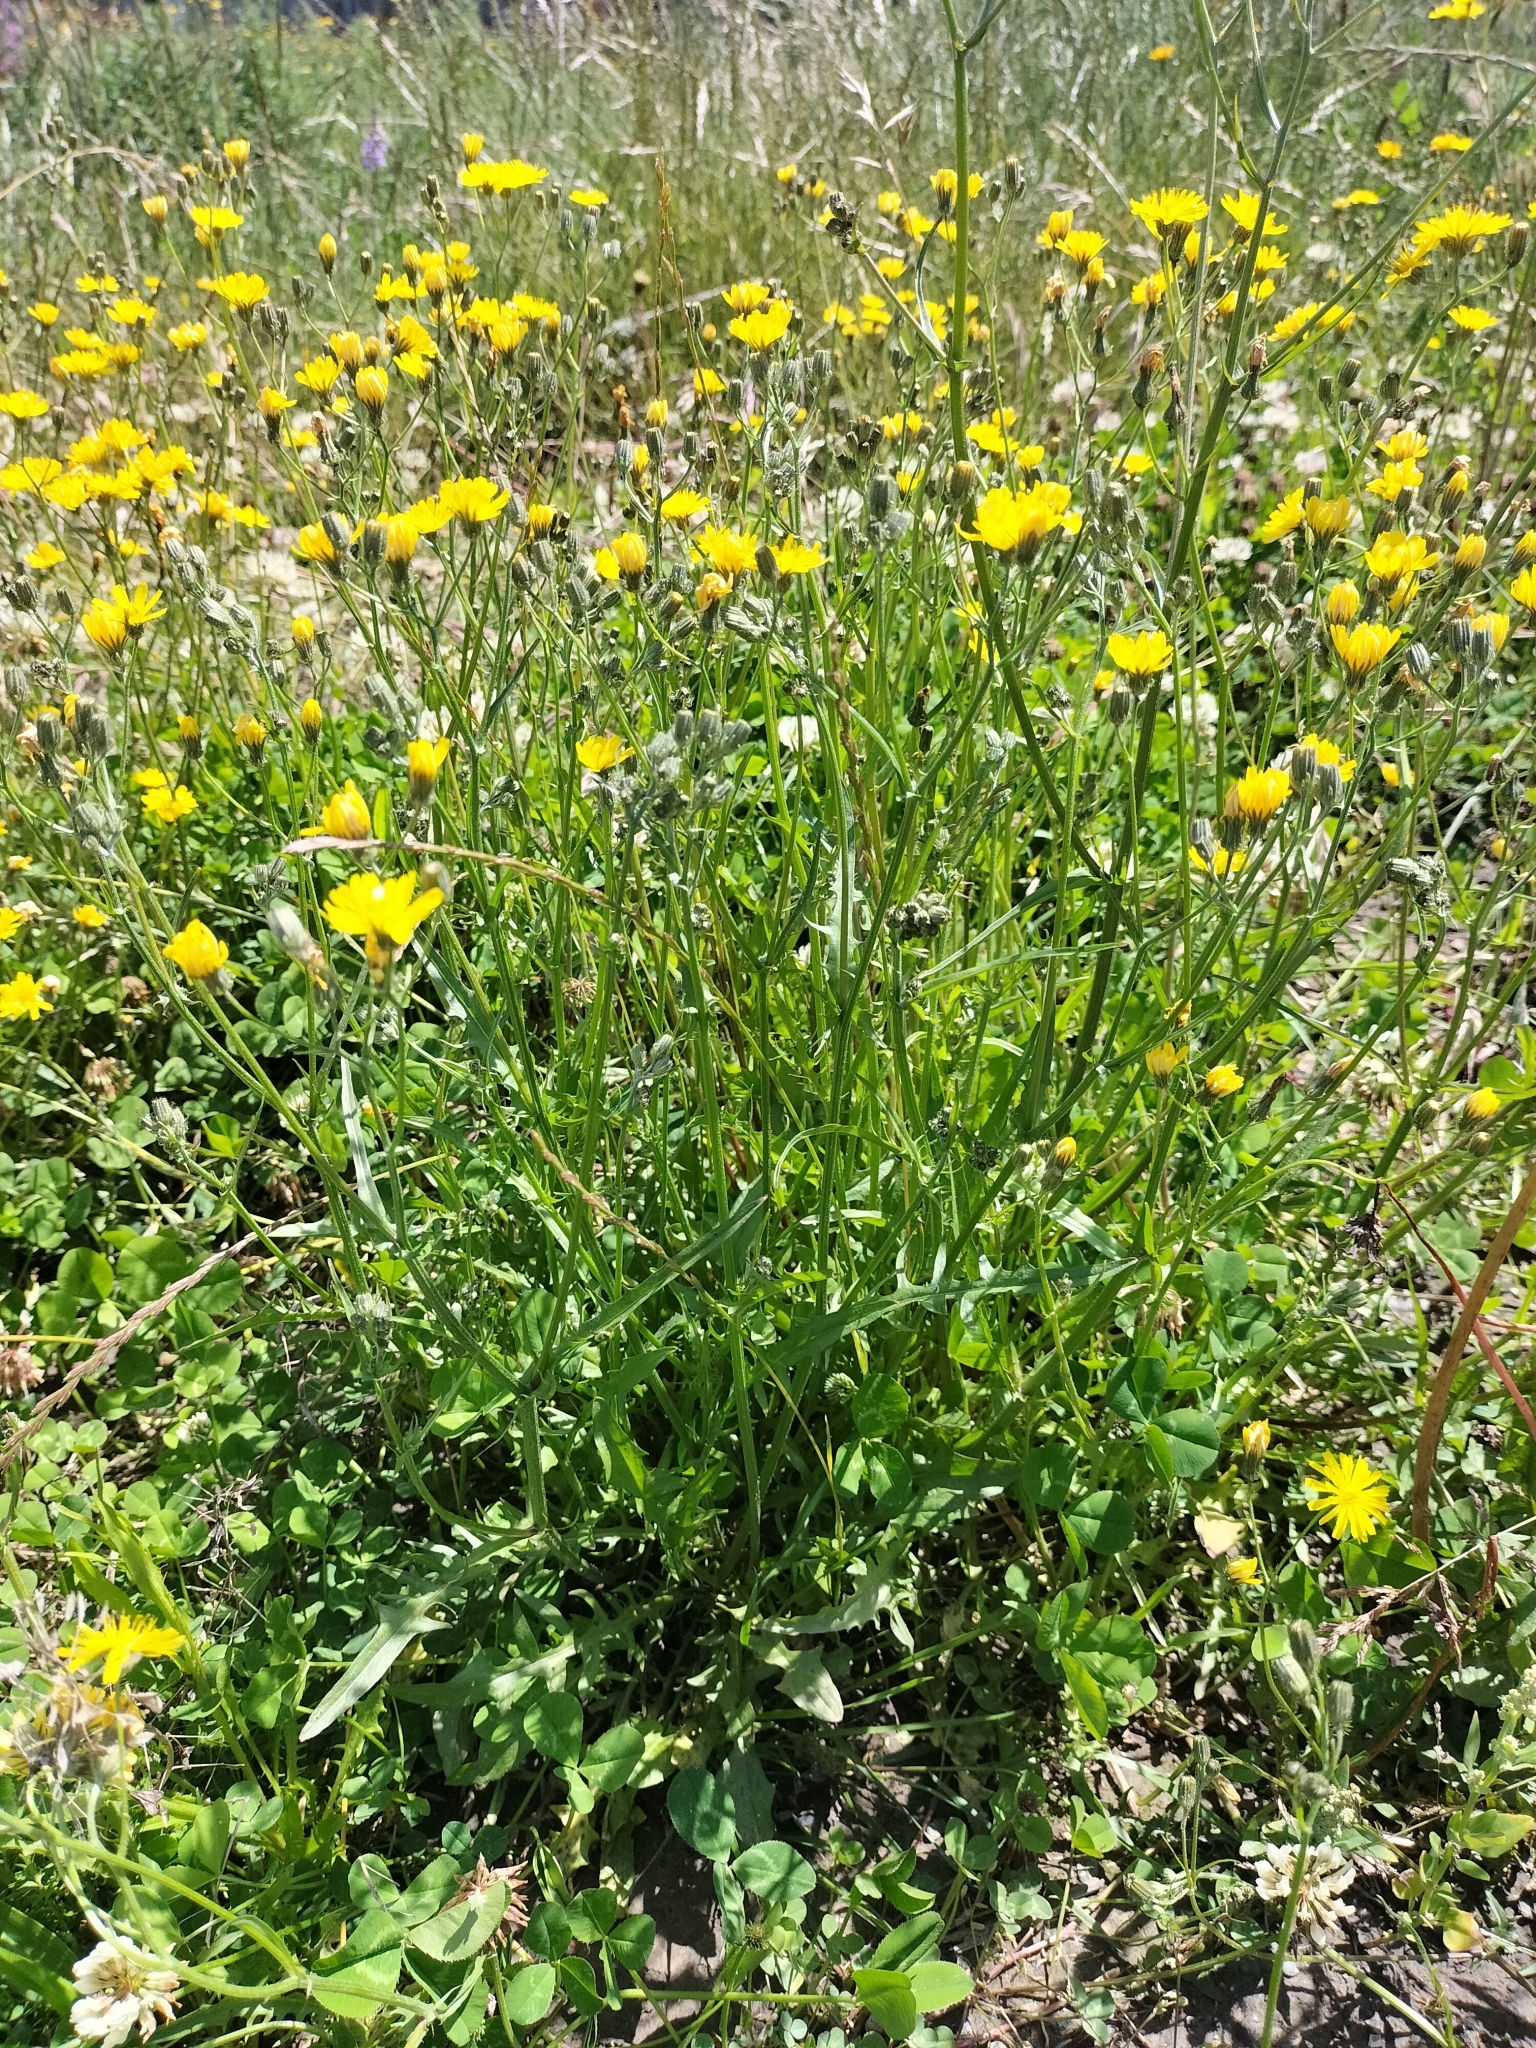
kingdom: Plantae
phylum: Tracheophyta
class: Magnoliopsida
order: Asterales
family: Asteraceae
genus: Crepis
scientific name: Crepis capillaris
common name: Smooth hawksbeard
